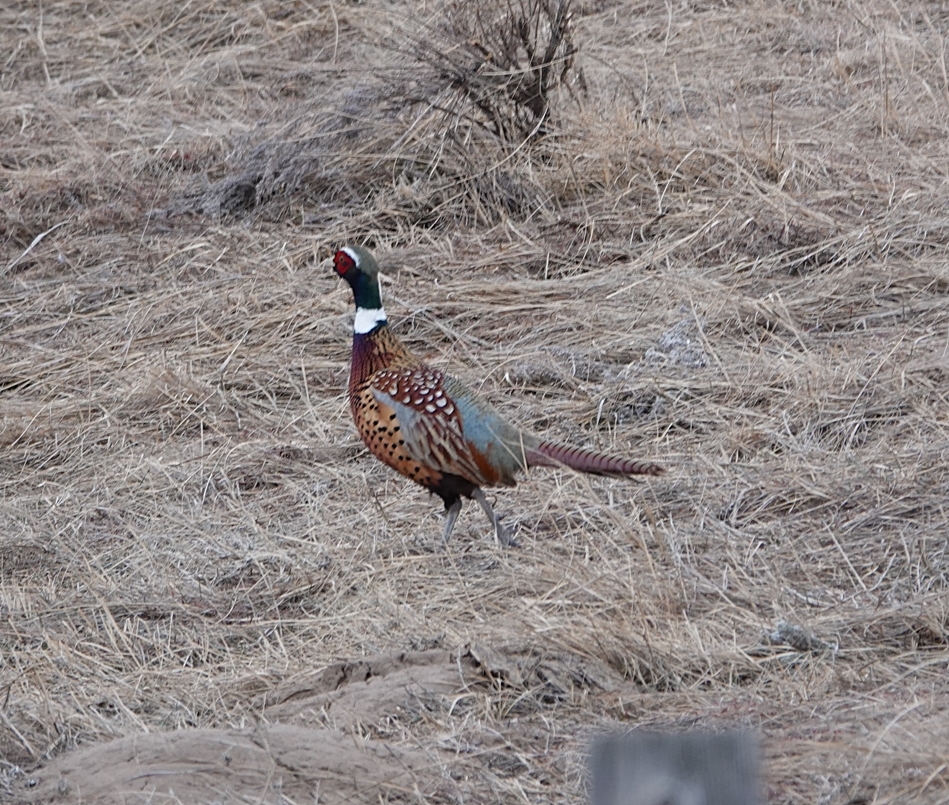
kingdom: Animalia
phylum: Chordata
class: Aves
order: Galliformes
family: Phasianidae
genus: Phasianus
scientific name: Phasianus colchicus
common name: Common pheasant
